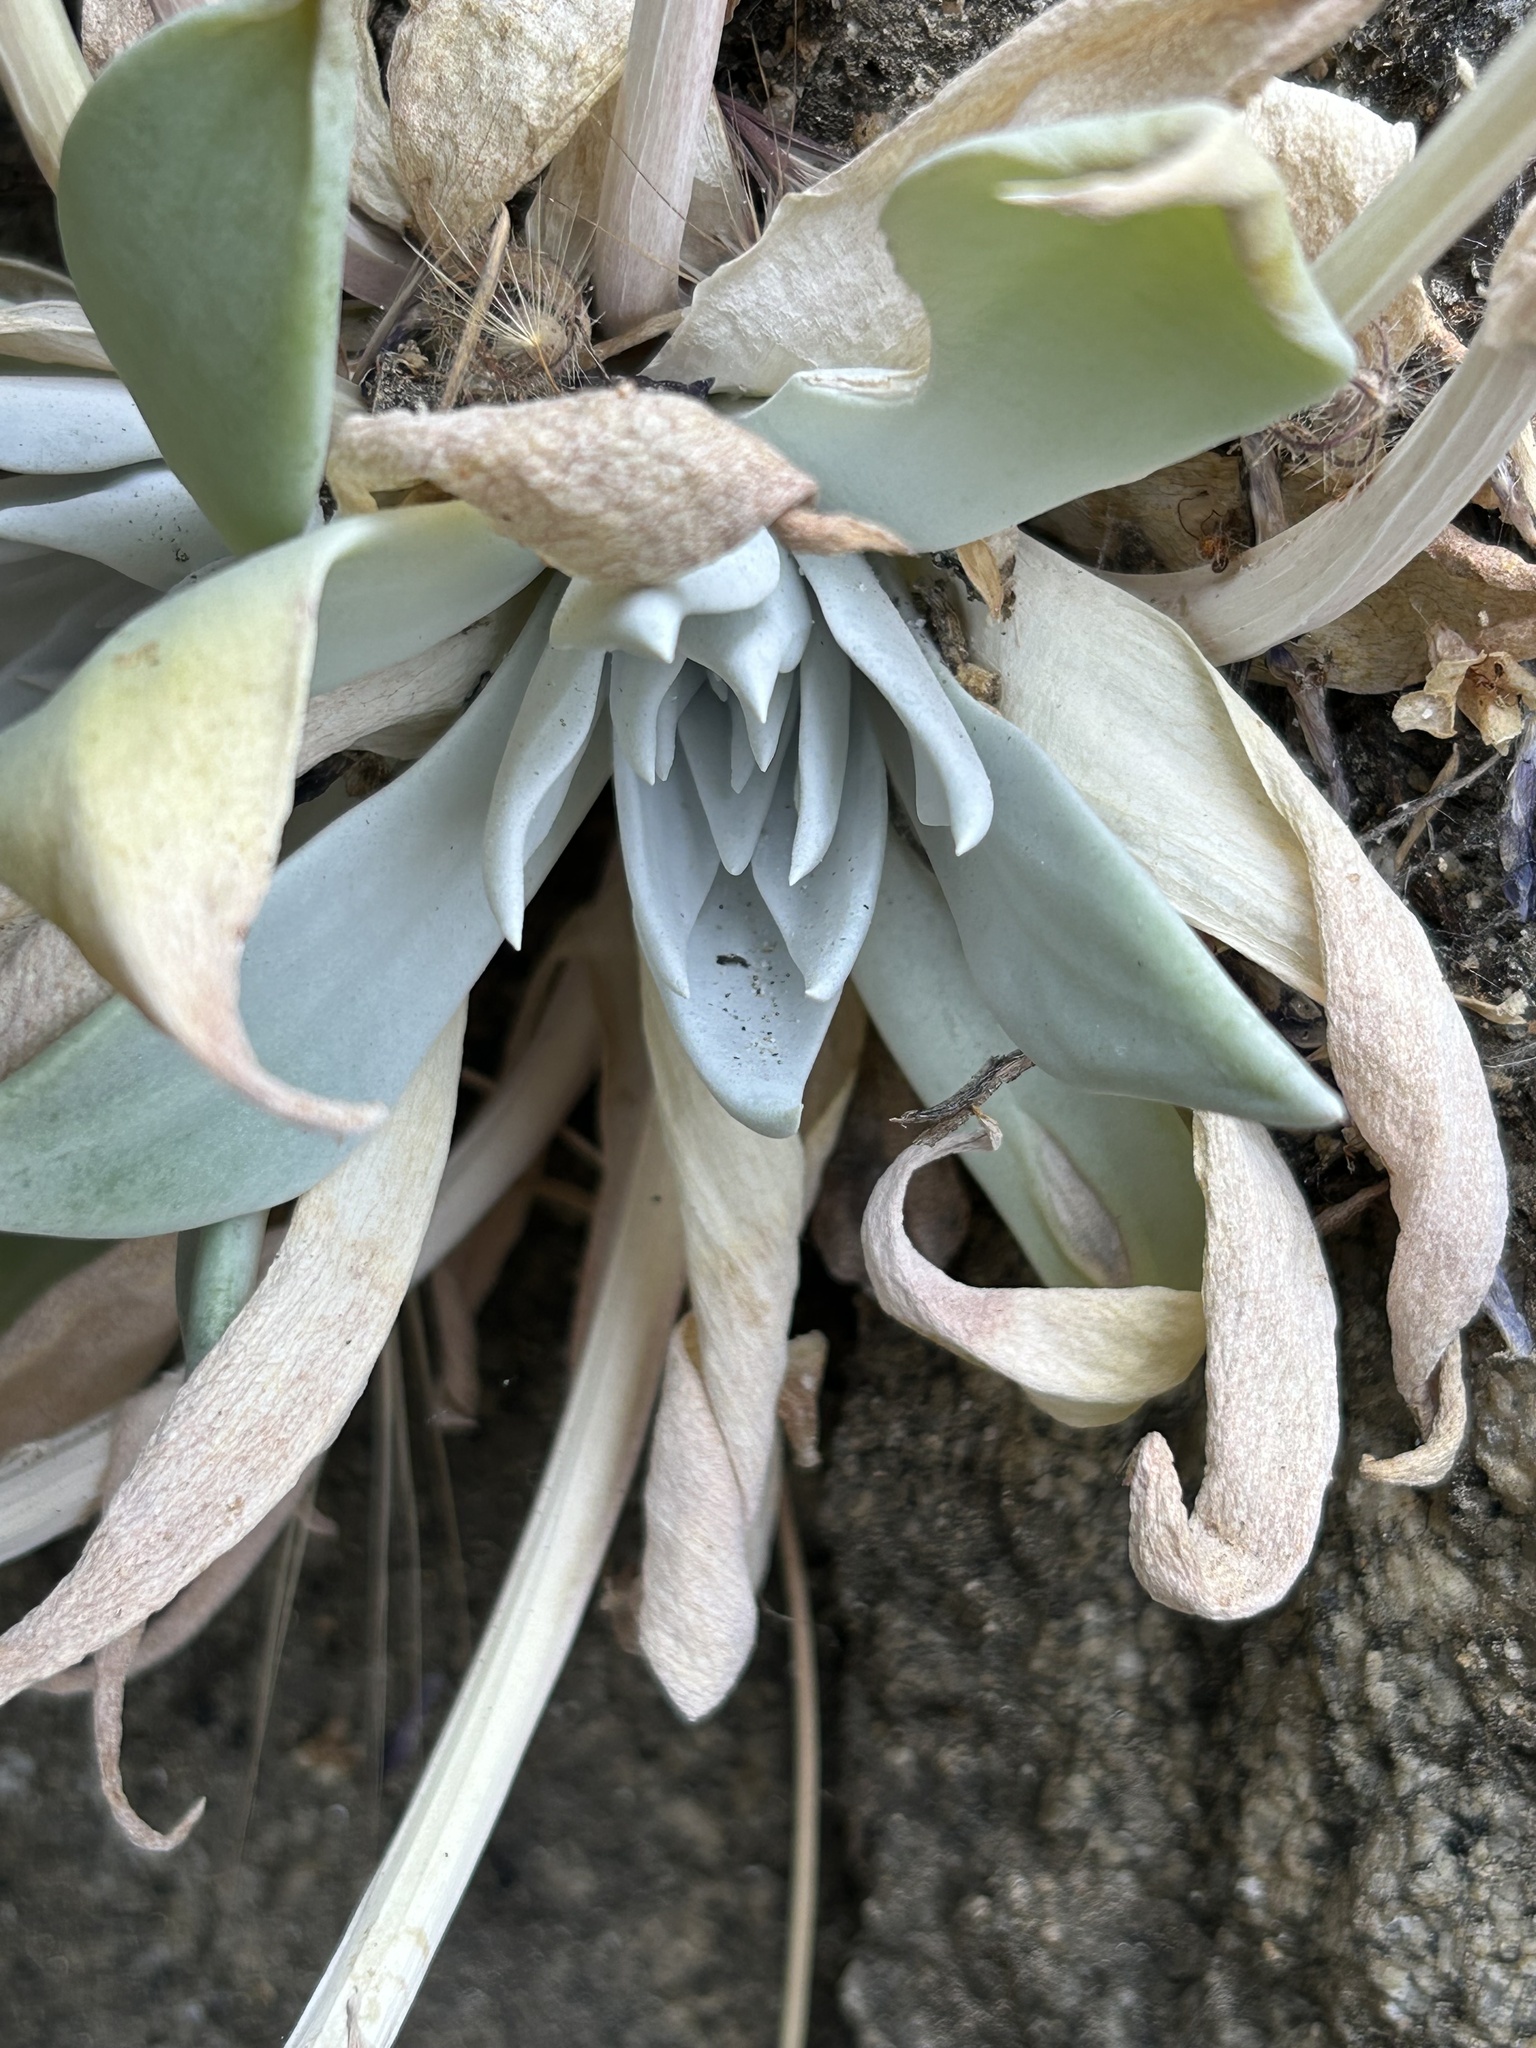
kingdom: Plantae
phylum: Tracheophyta
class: Magnoliopsida
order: Saxifragales
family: Crassulaceae
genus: Dudleya
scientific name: Dudleya cymosa
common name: Canyon dudleya
